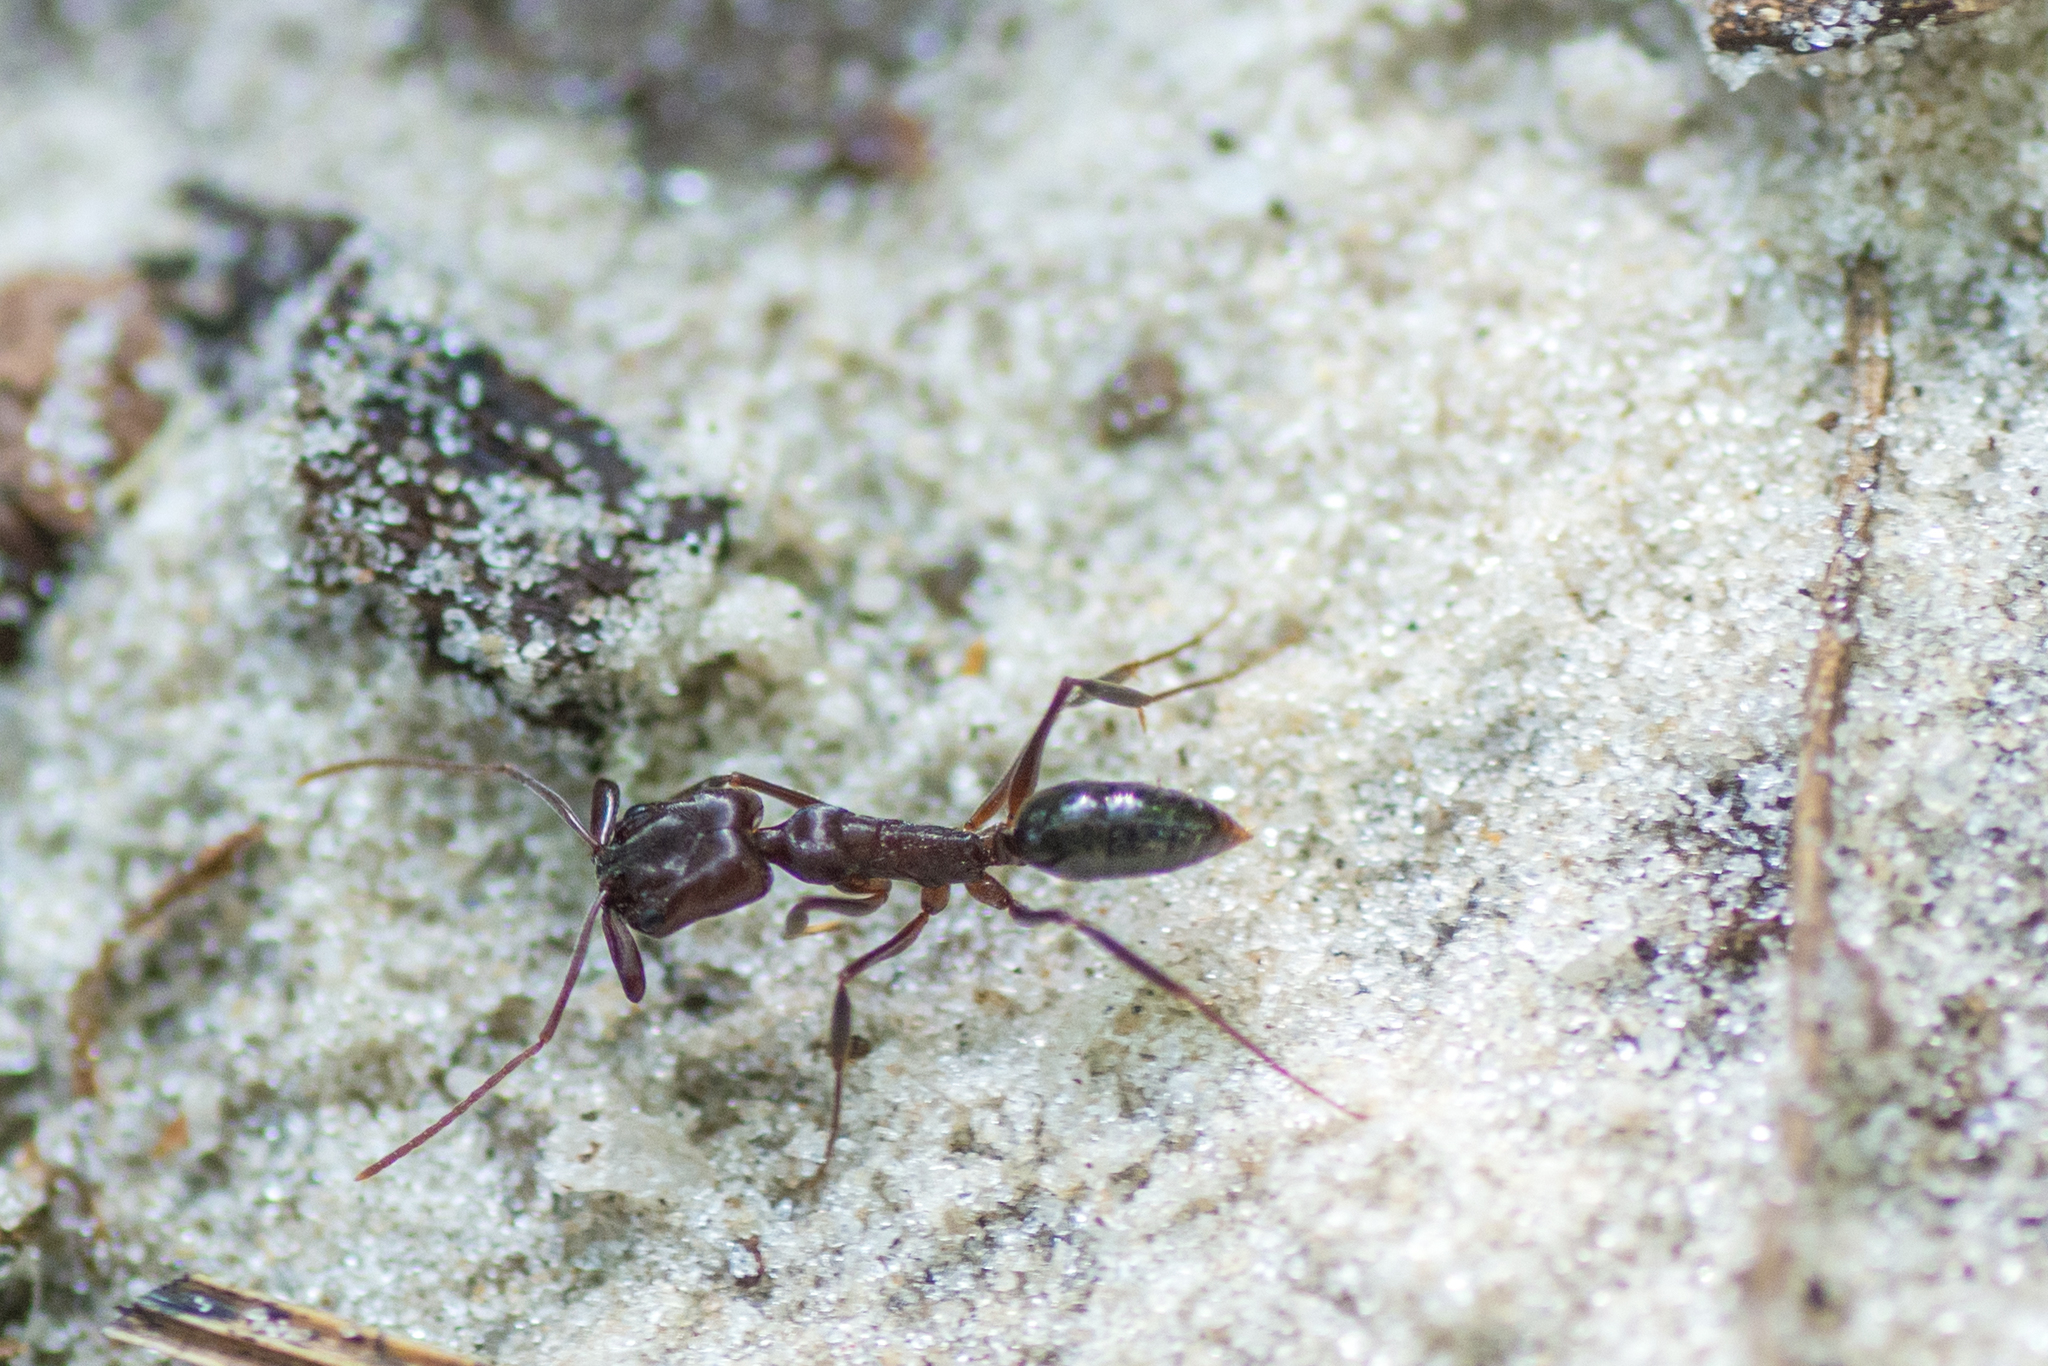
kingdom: Animalia
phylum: Arthropoda
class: Insecta
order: Hymenoptera
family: Formicidae
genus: Odontomachus
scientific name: Odontomachus brunneus
